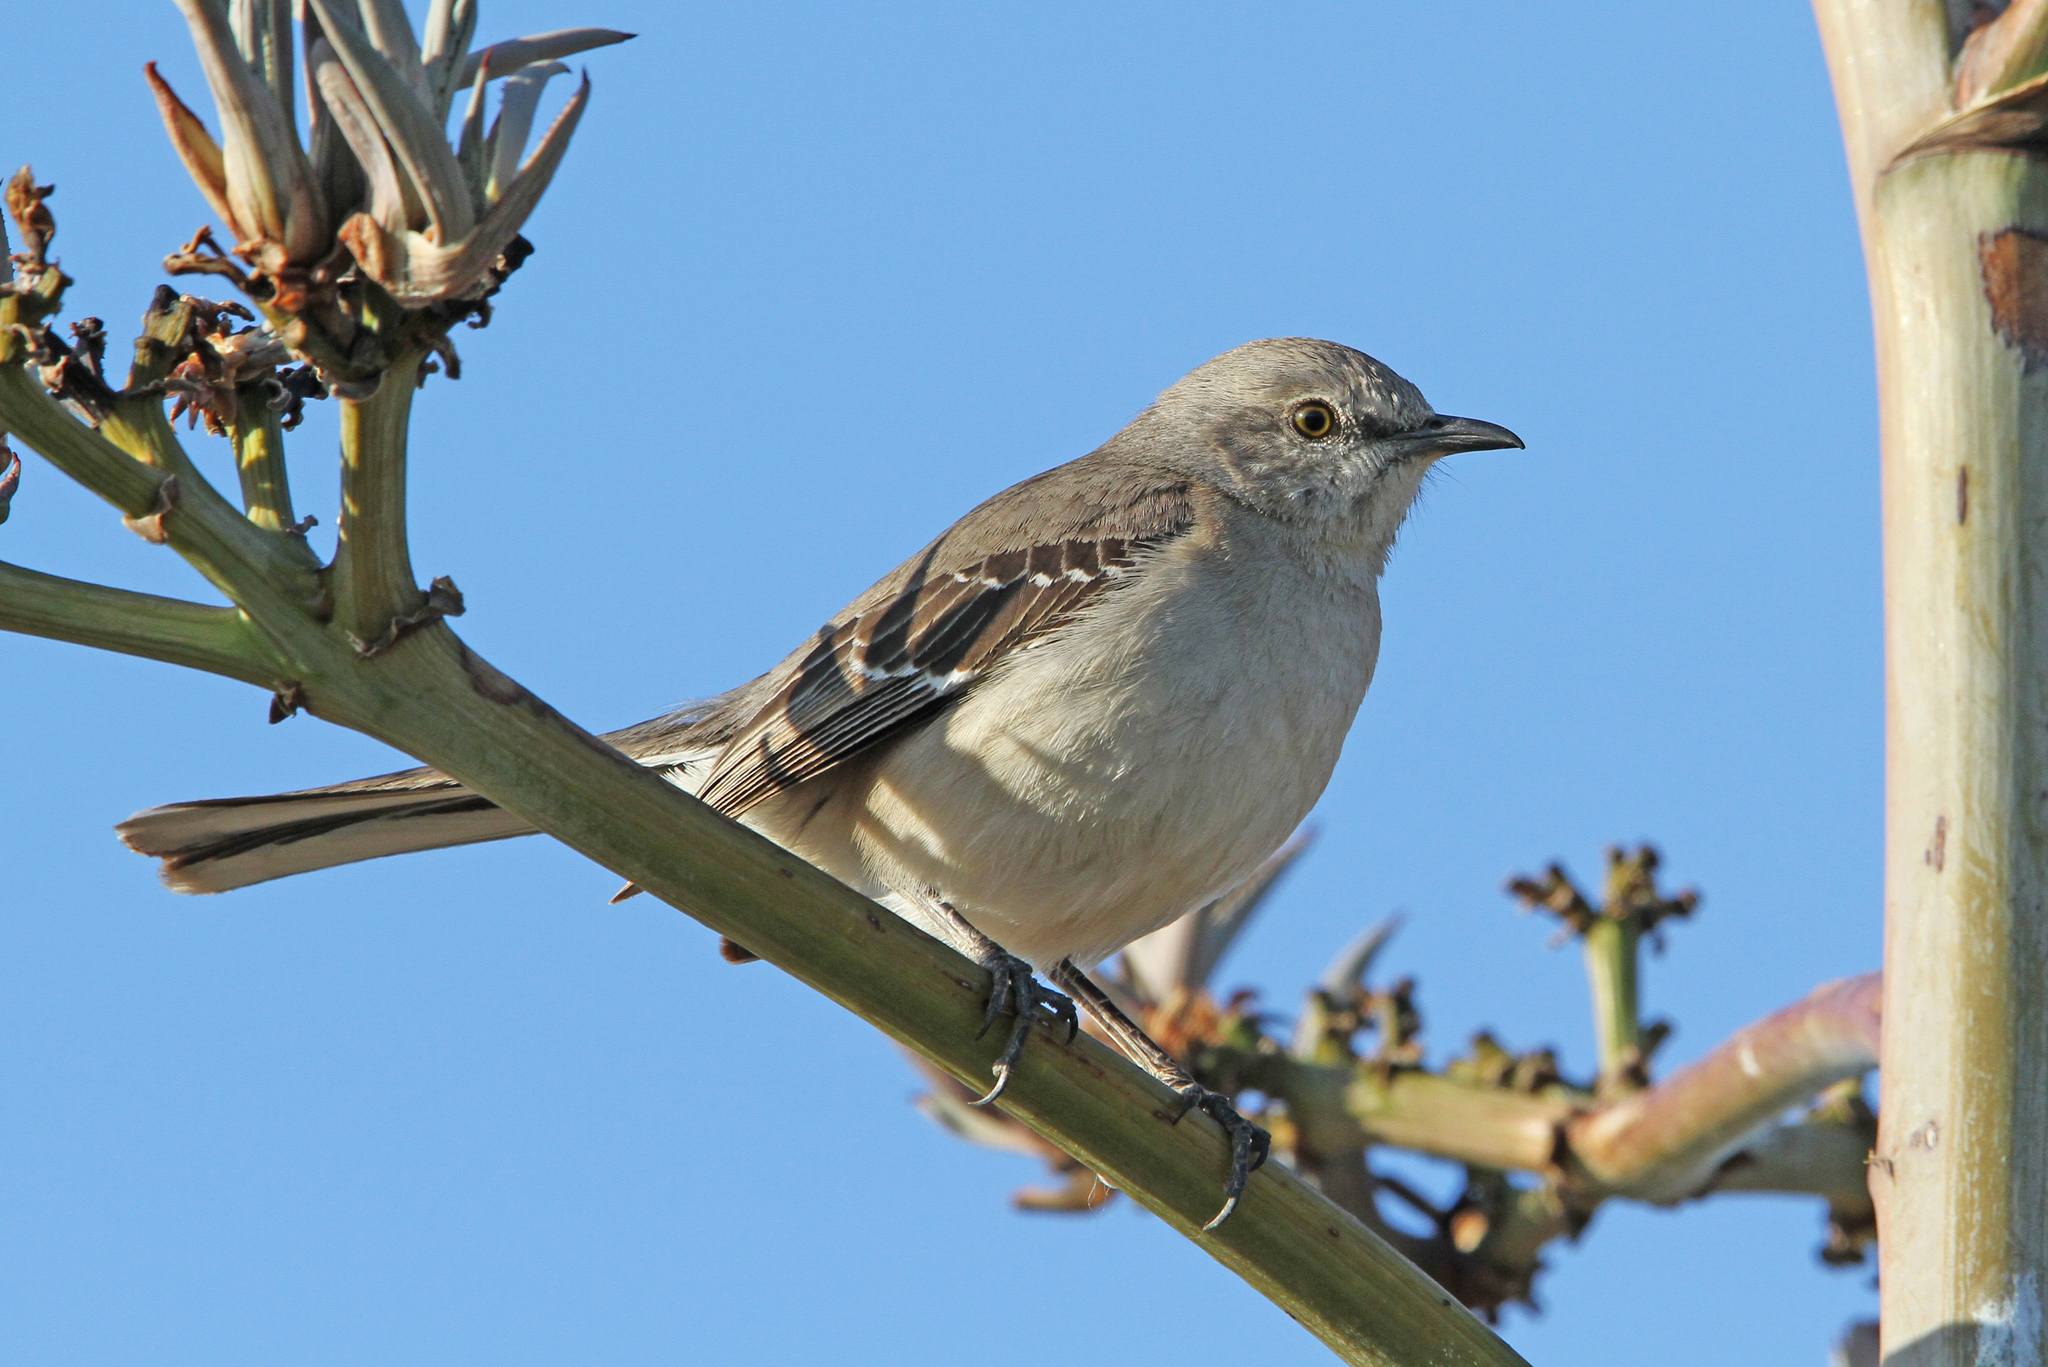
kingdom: Animalia
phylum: Chordata
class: Aves
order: Passeriformes
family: Mimidae
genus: Mimus
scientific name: Mimus polyglottos
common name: Northern mockingbird
